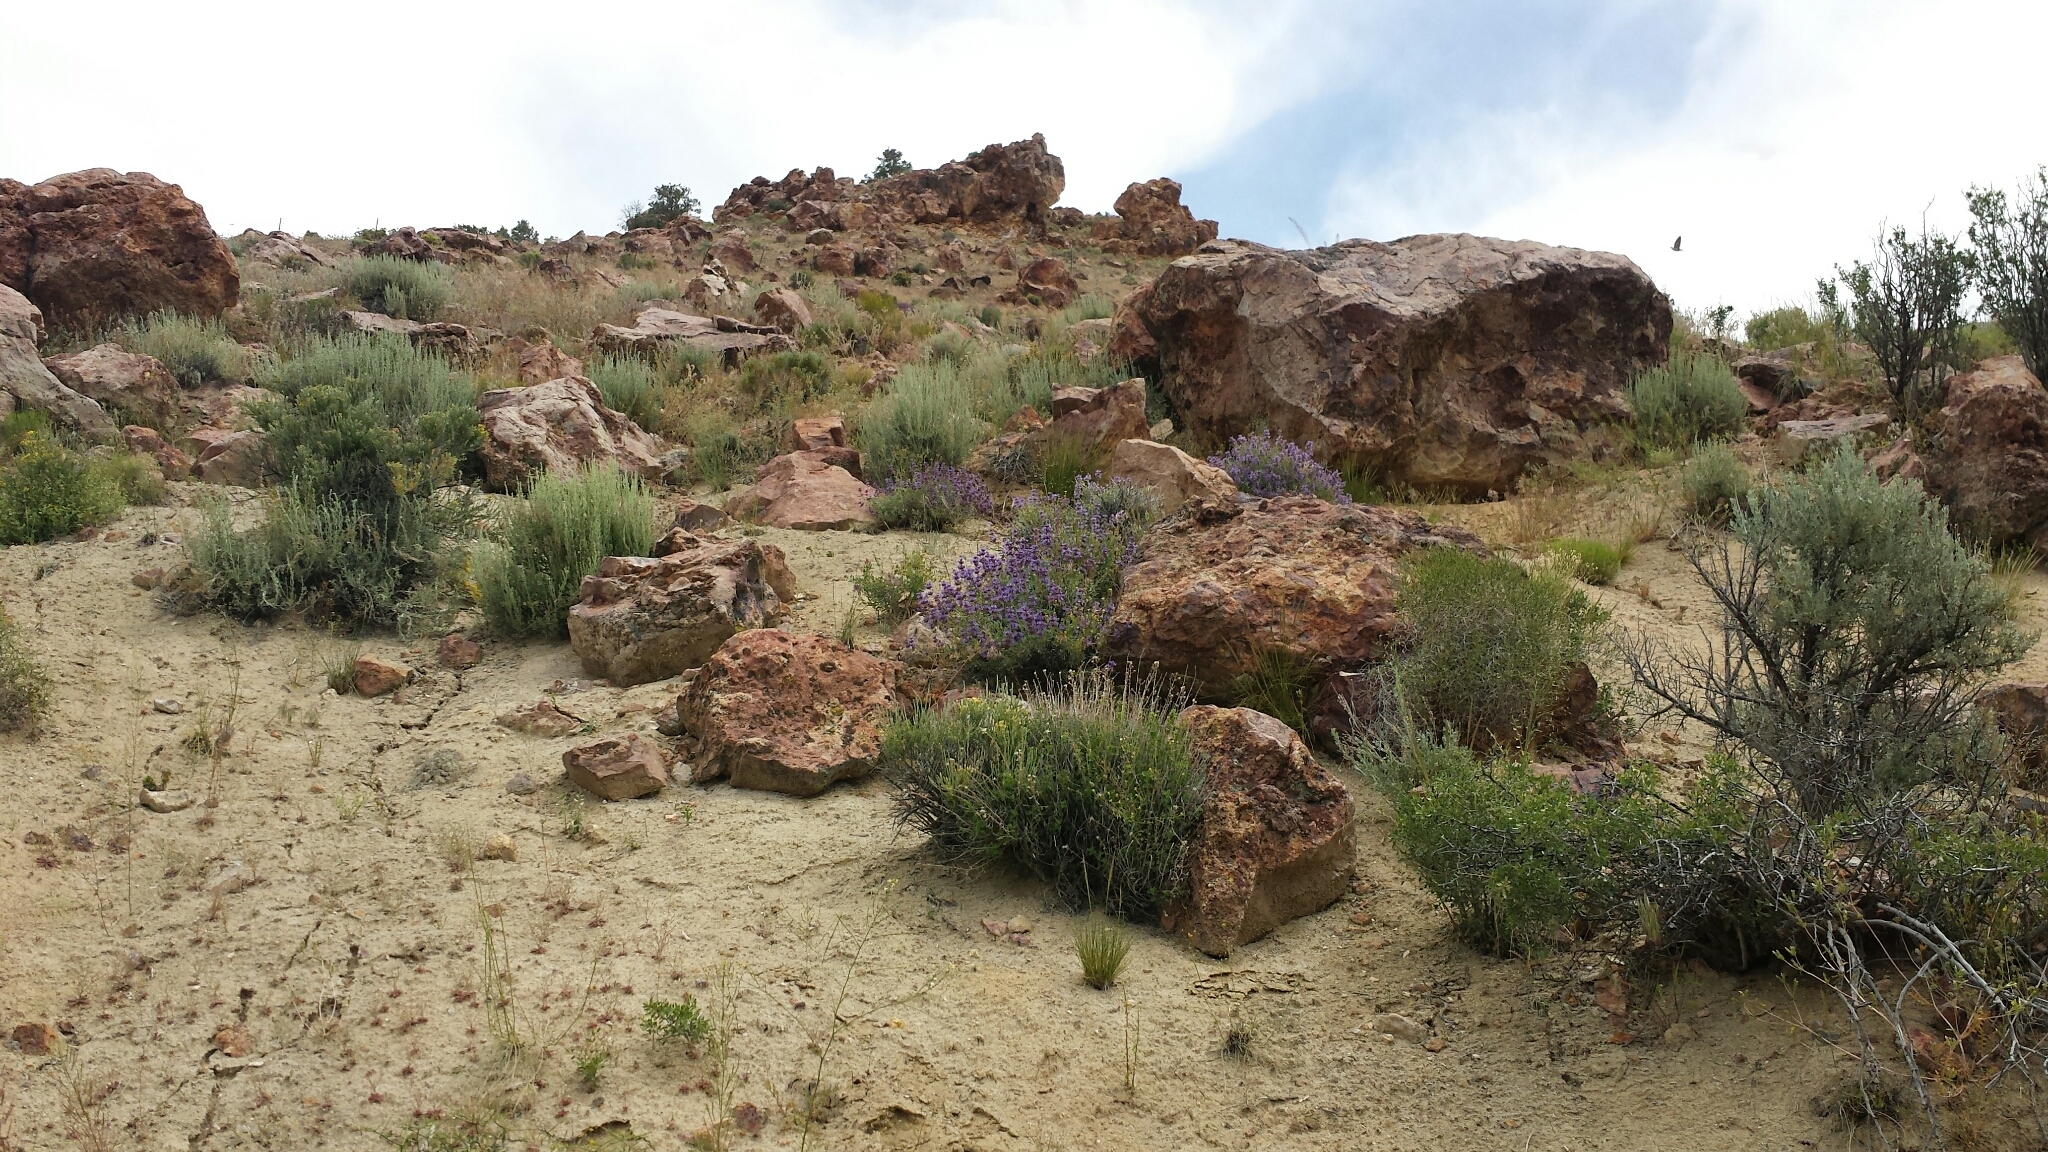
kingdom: Plantae
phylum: Tracheophyta
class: Magnoliopsida
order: Lamiales
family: Lamiaceae
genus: Salvia
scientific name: Salvia dorrii
